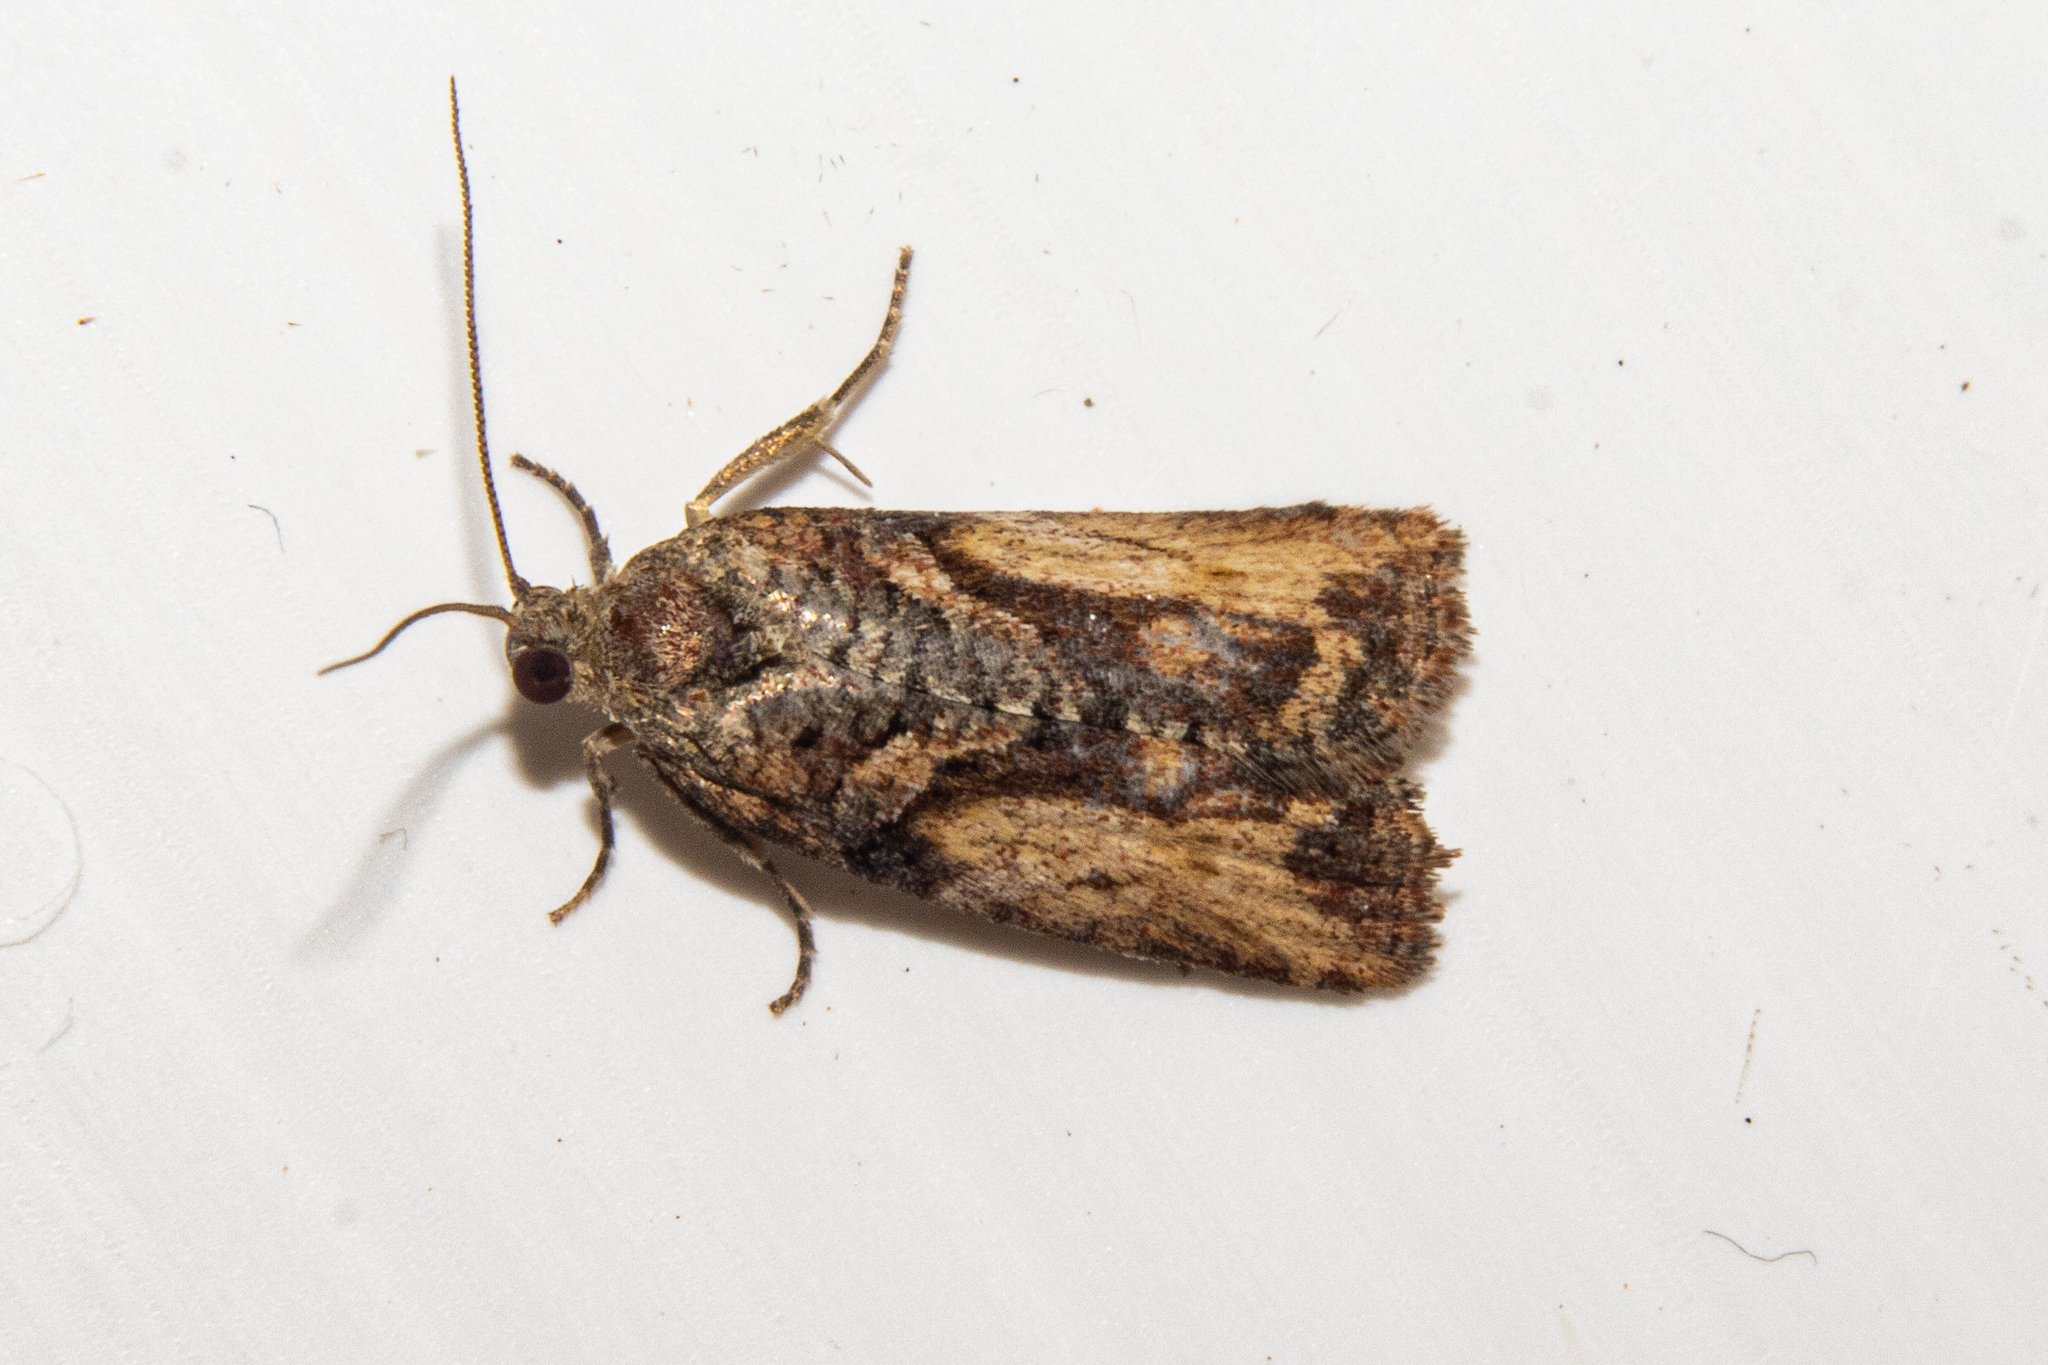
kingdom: Animalia
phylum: Arthropoda
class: Insecta
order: Lepidoptera
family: Tortricidae
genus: Harmologa
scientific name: Harmologa scoliastis
